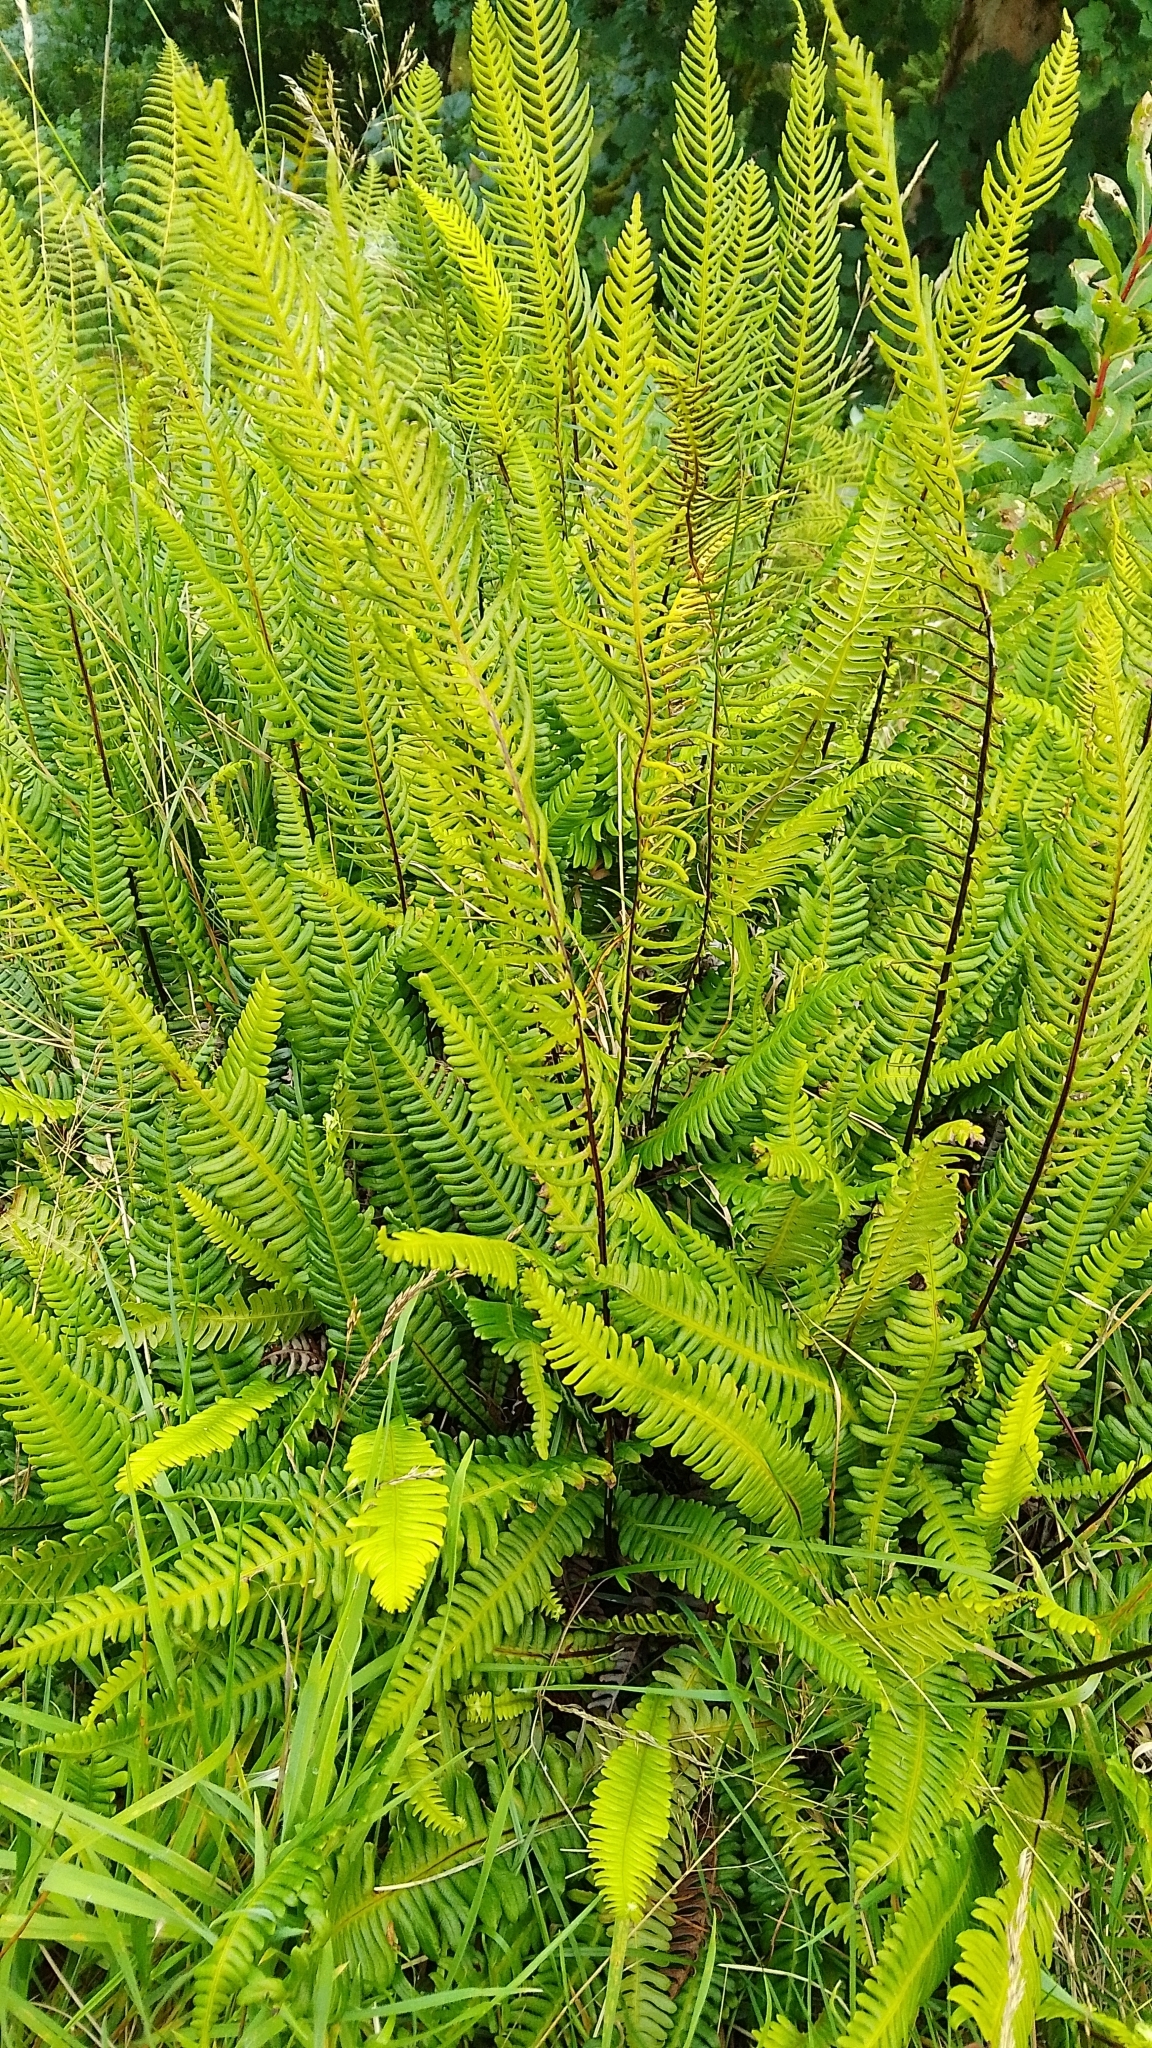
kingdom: Plantae
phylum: Tracheophyta
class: Polypodiopsida
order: Polypodiales
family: Blechnaceae
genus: Struthiopteris
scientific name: Struthiopteris spicant
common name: Deer fern
